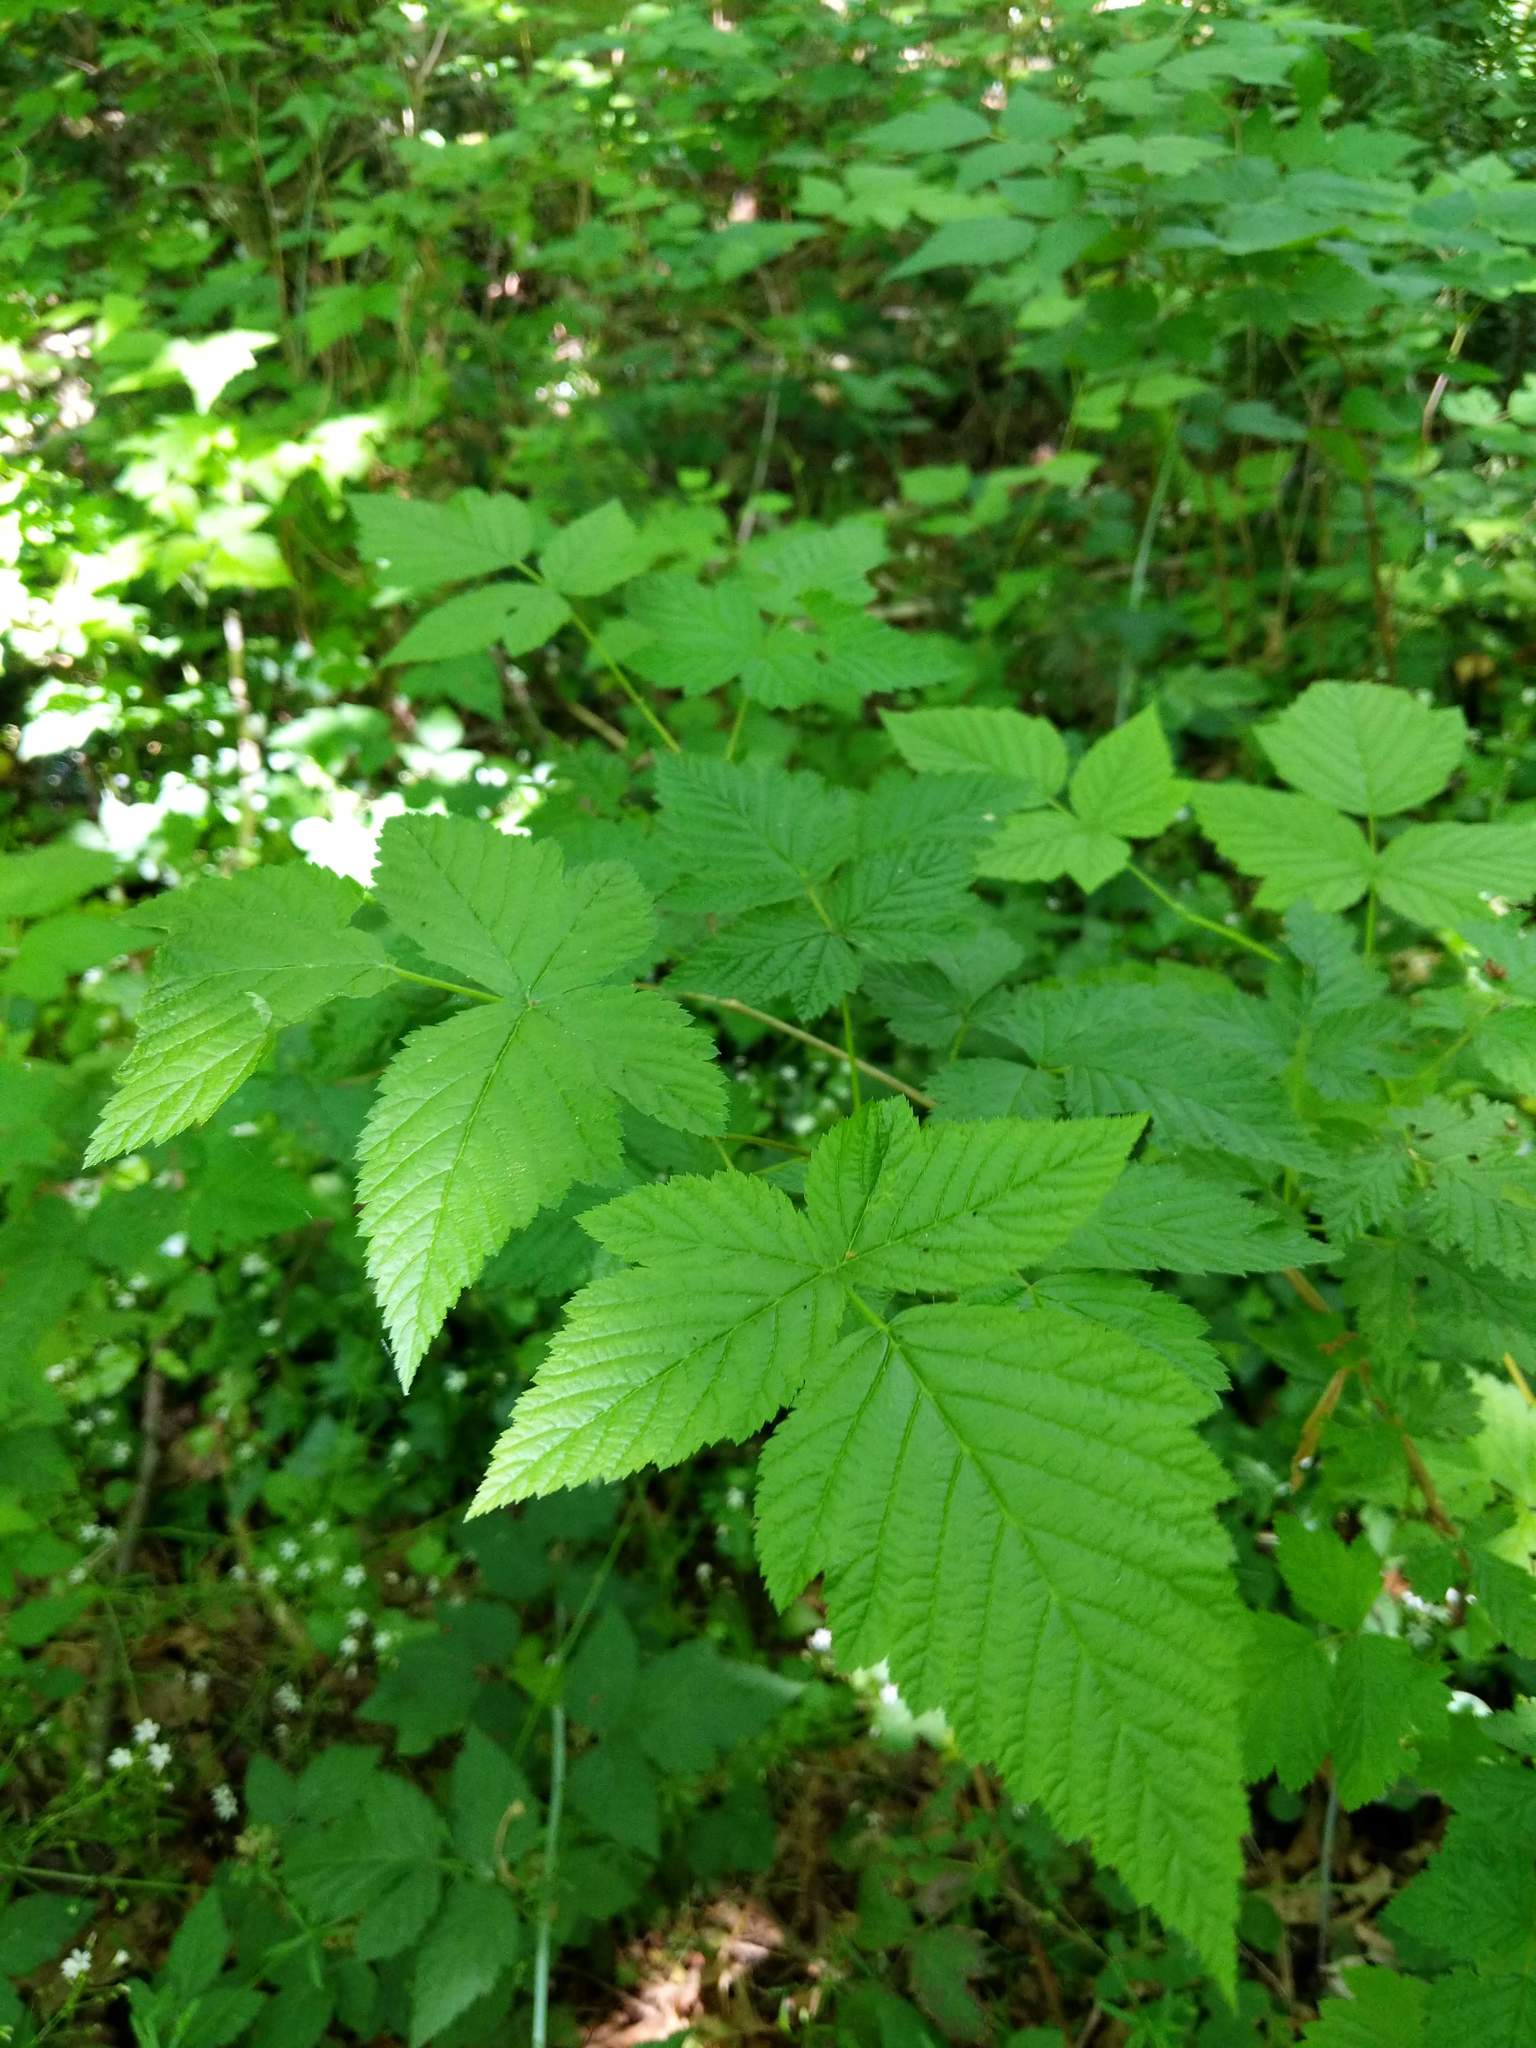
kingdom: Plantae
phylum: Tracheophyta
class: Magnoliopsida
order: Rosales
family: Rosaceae
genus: Rubus
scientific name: Rubus spectabilis
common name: Salmonberry
